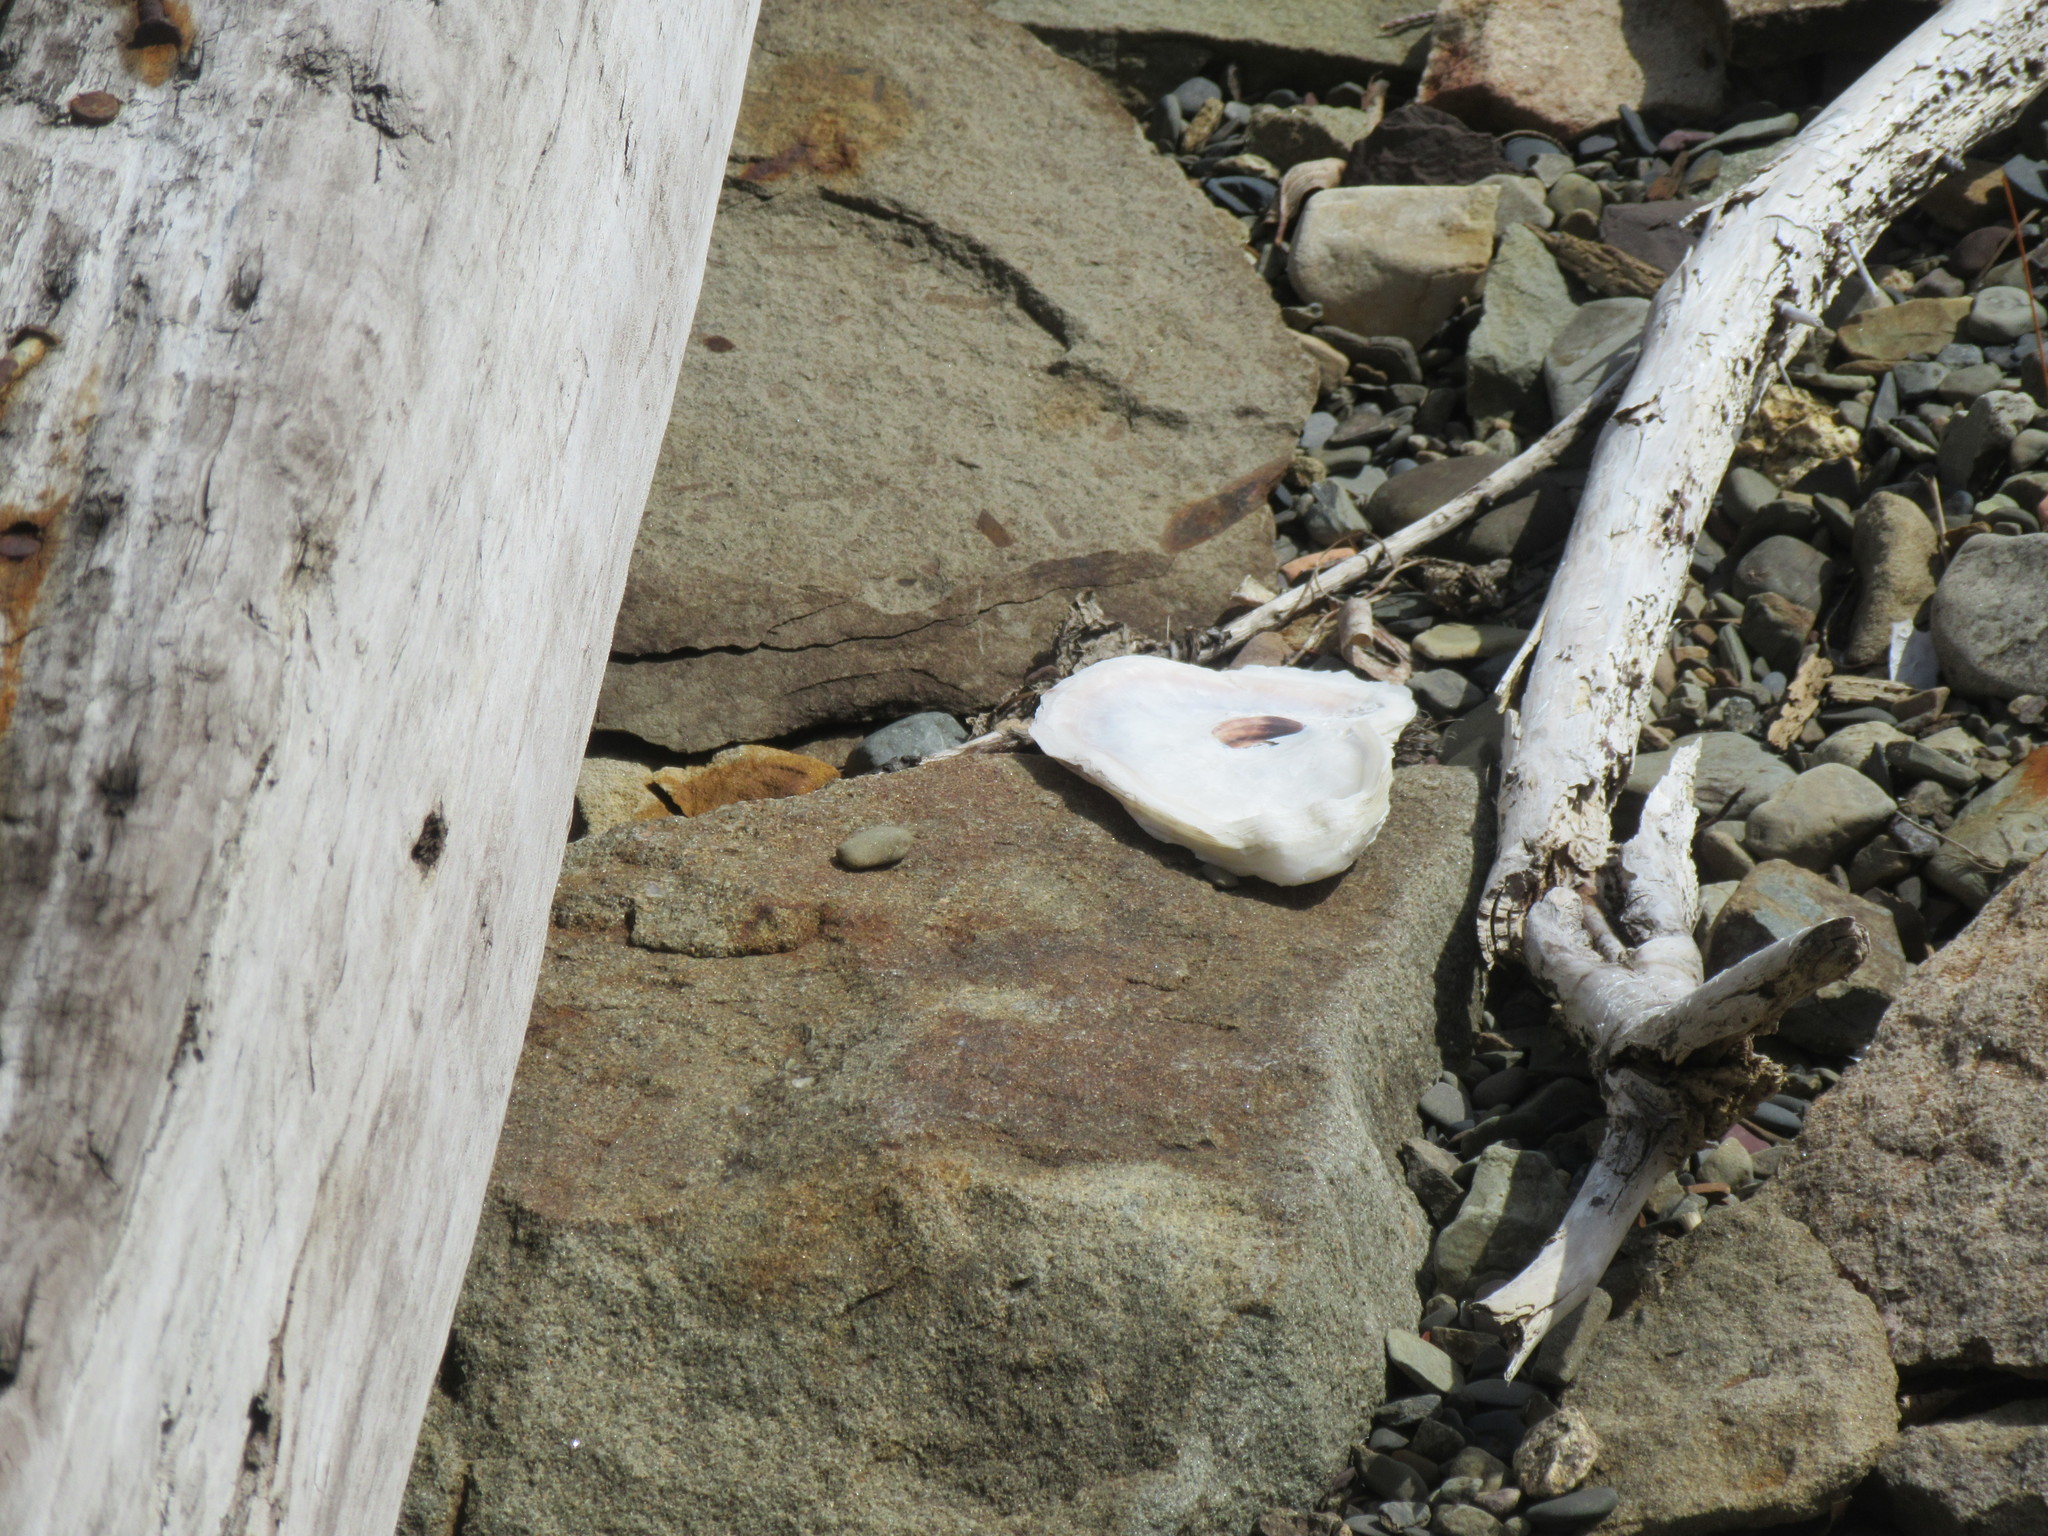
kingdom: Animalia
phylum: Mollusca
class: Bivalvia
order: Ostreida
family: Ostreidae
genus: Crassostrea
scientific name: Crassostrea virginica
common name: American oyster
